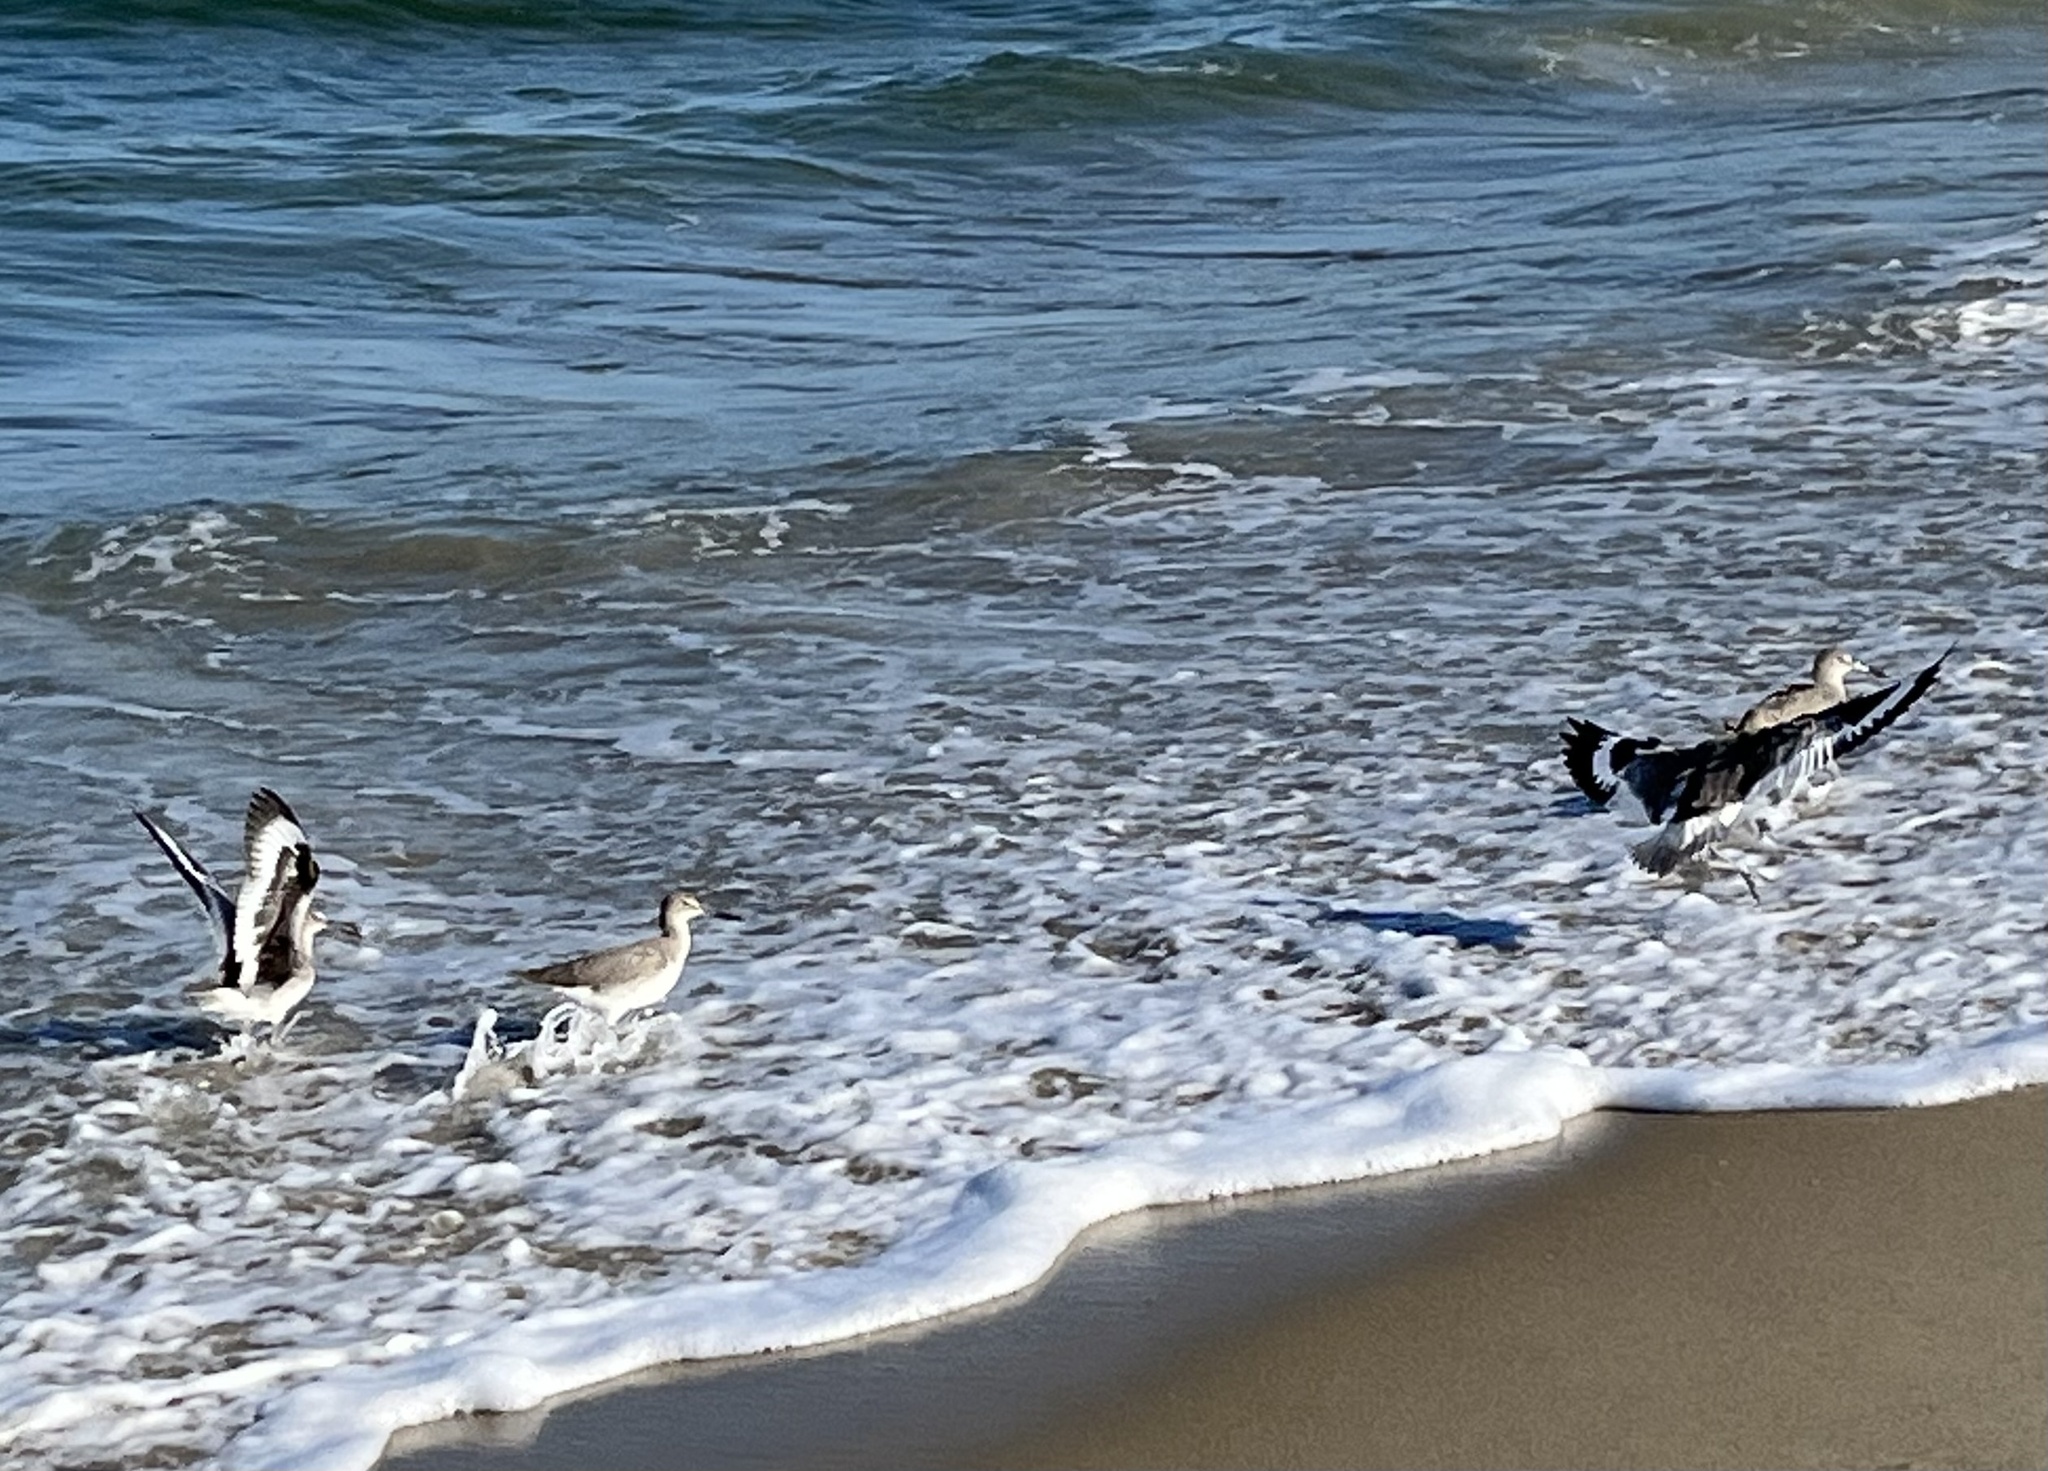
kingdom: Animalia
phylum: Chordata
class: Aves
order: Charadriiformes
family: Scolopacidae
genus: Tringa
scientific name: Tringa semipalmata
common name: Willet
